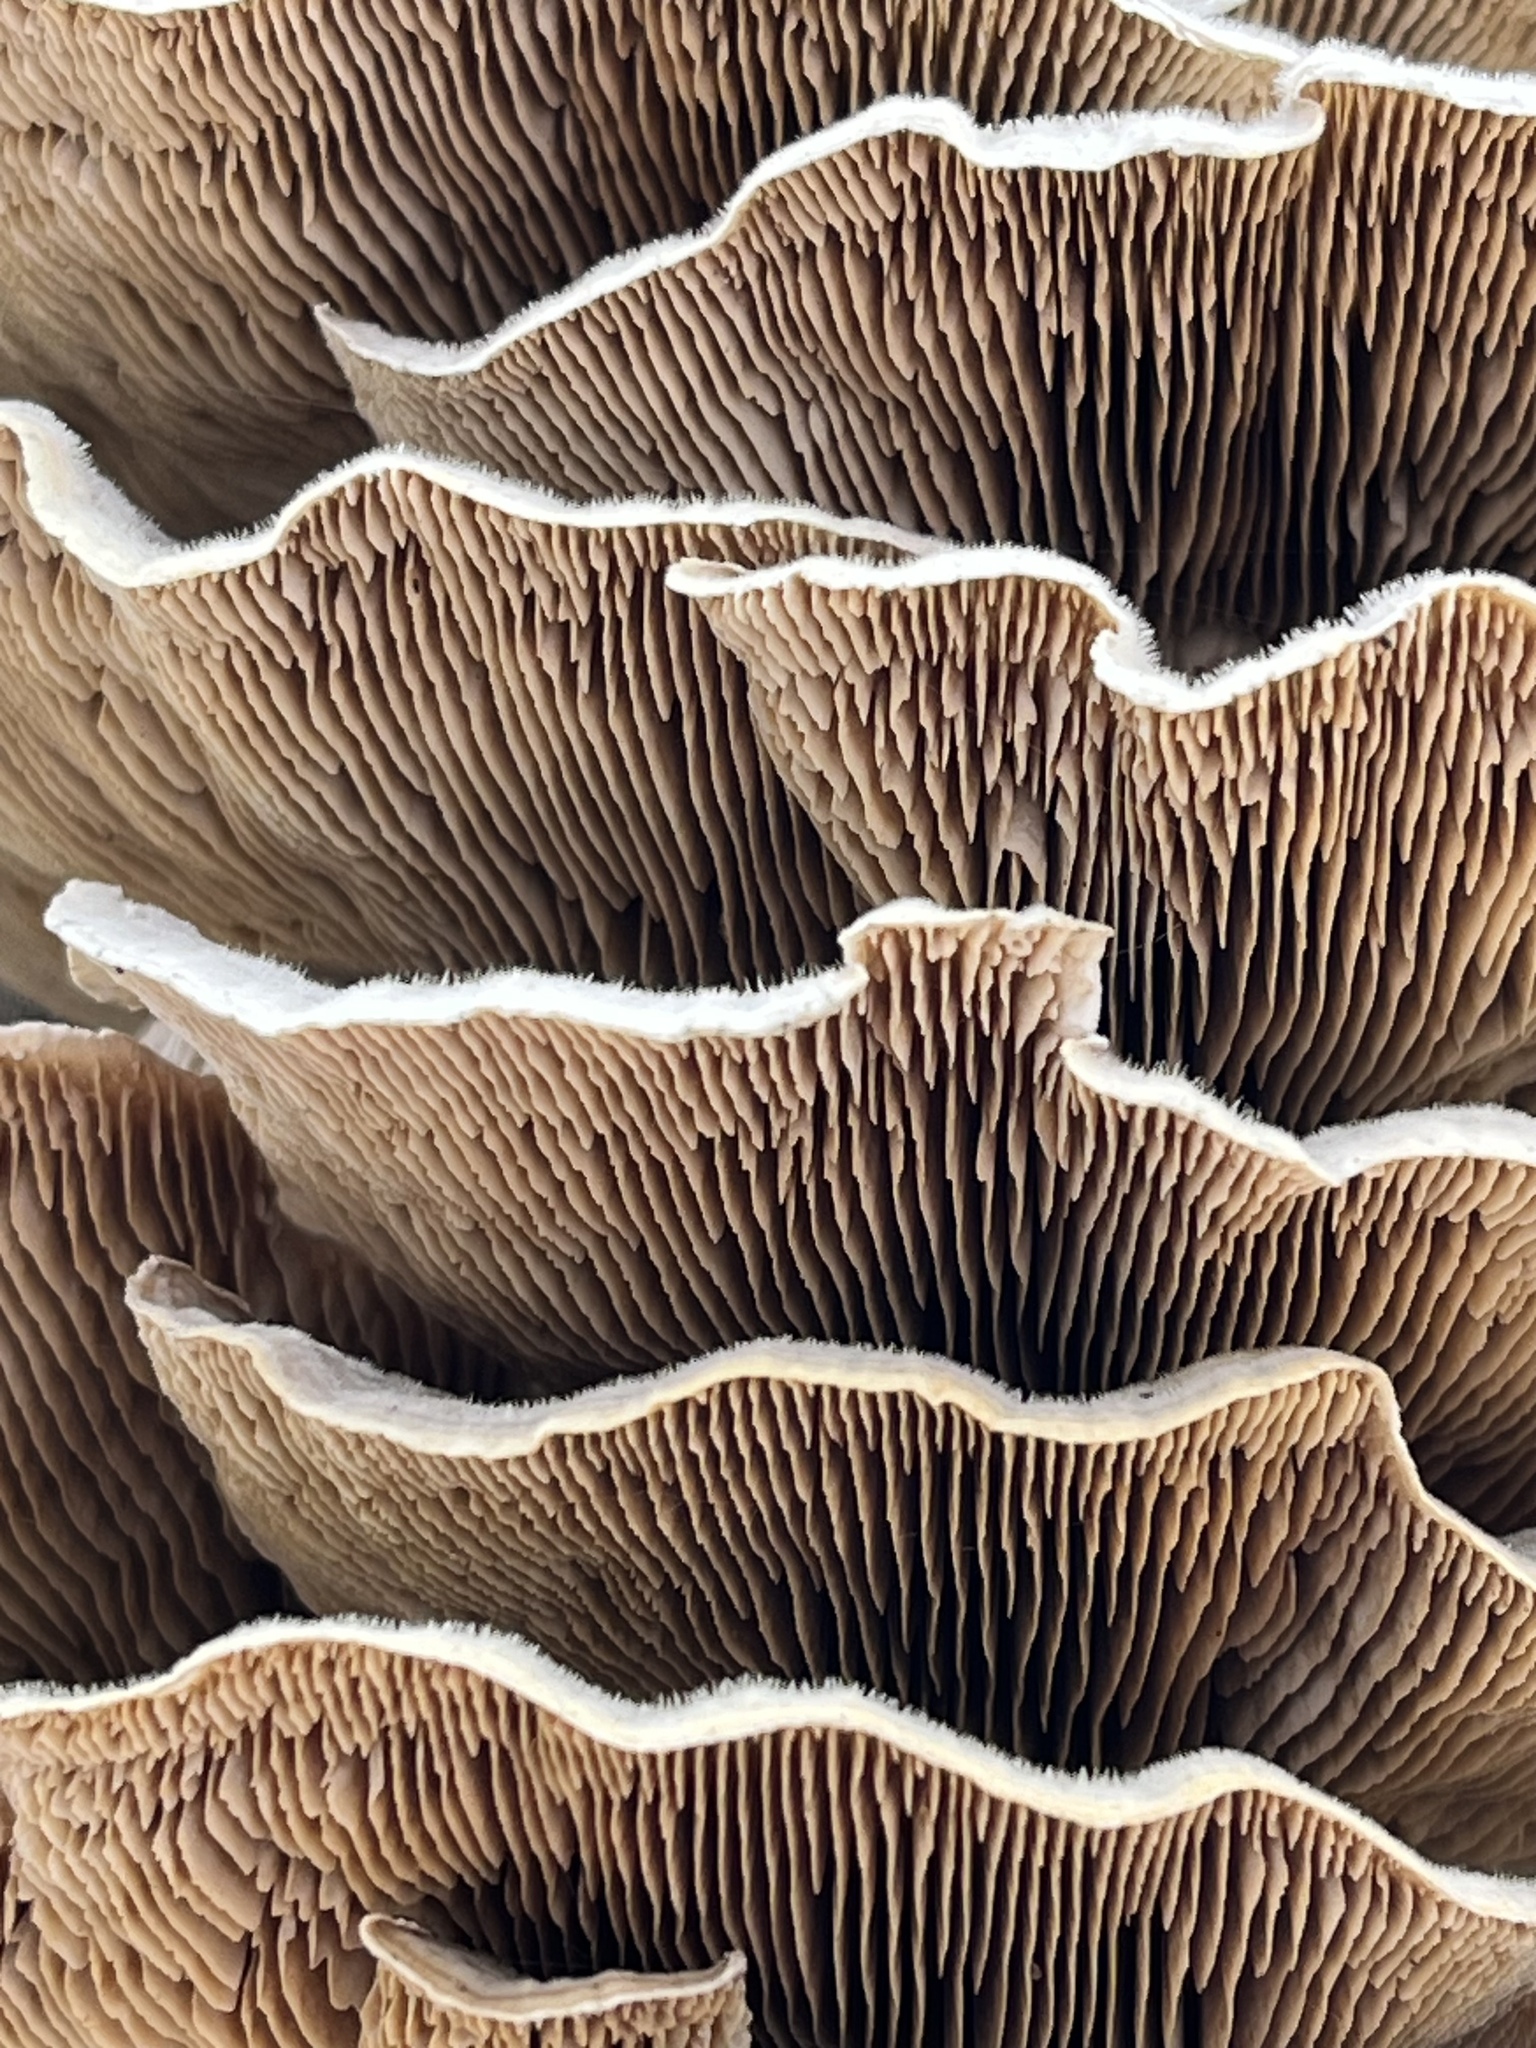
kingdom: Fungi
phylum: Basidiomycota
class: Agaricomycetes
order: Polyporales
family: Polyporaceae
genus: Lenzites
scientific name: Lenzites betulinus
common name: Birch mazegill
